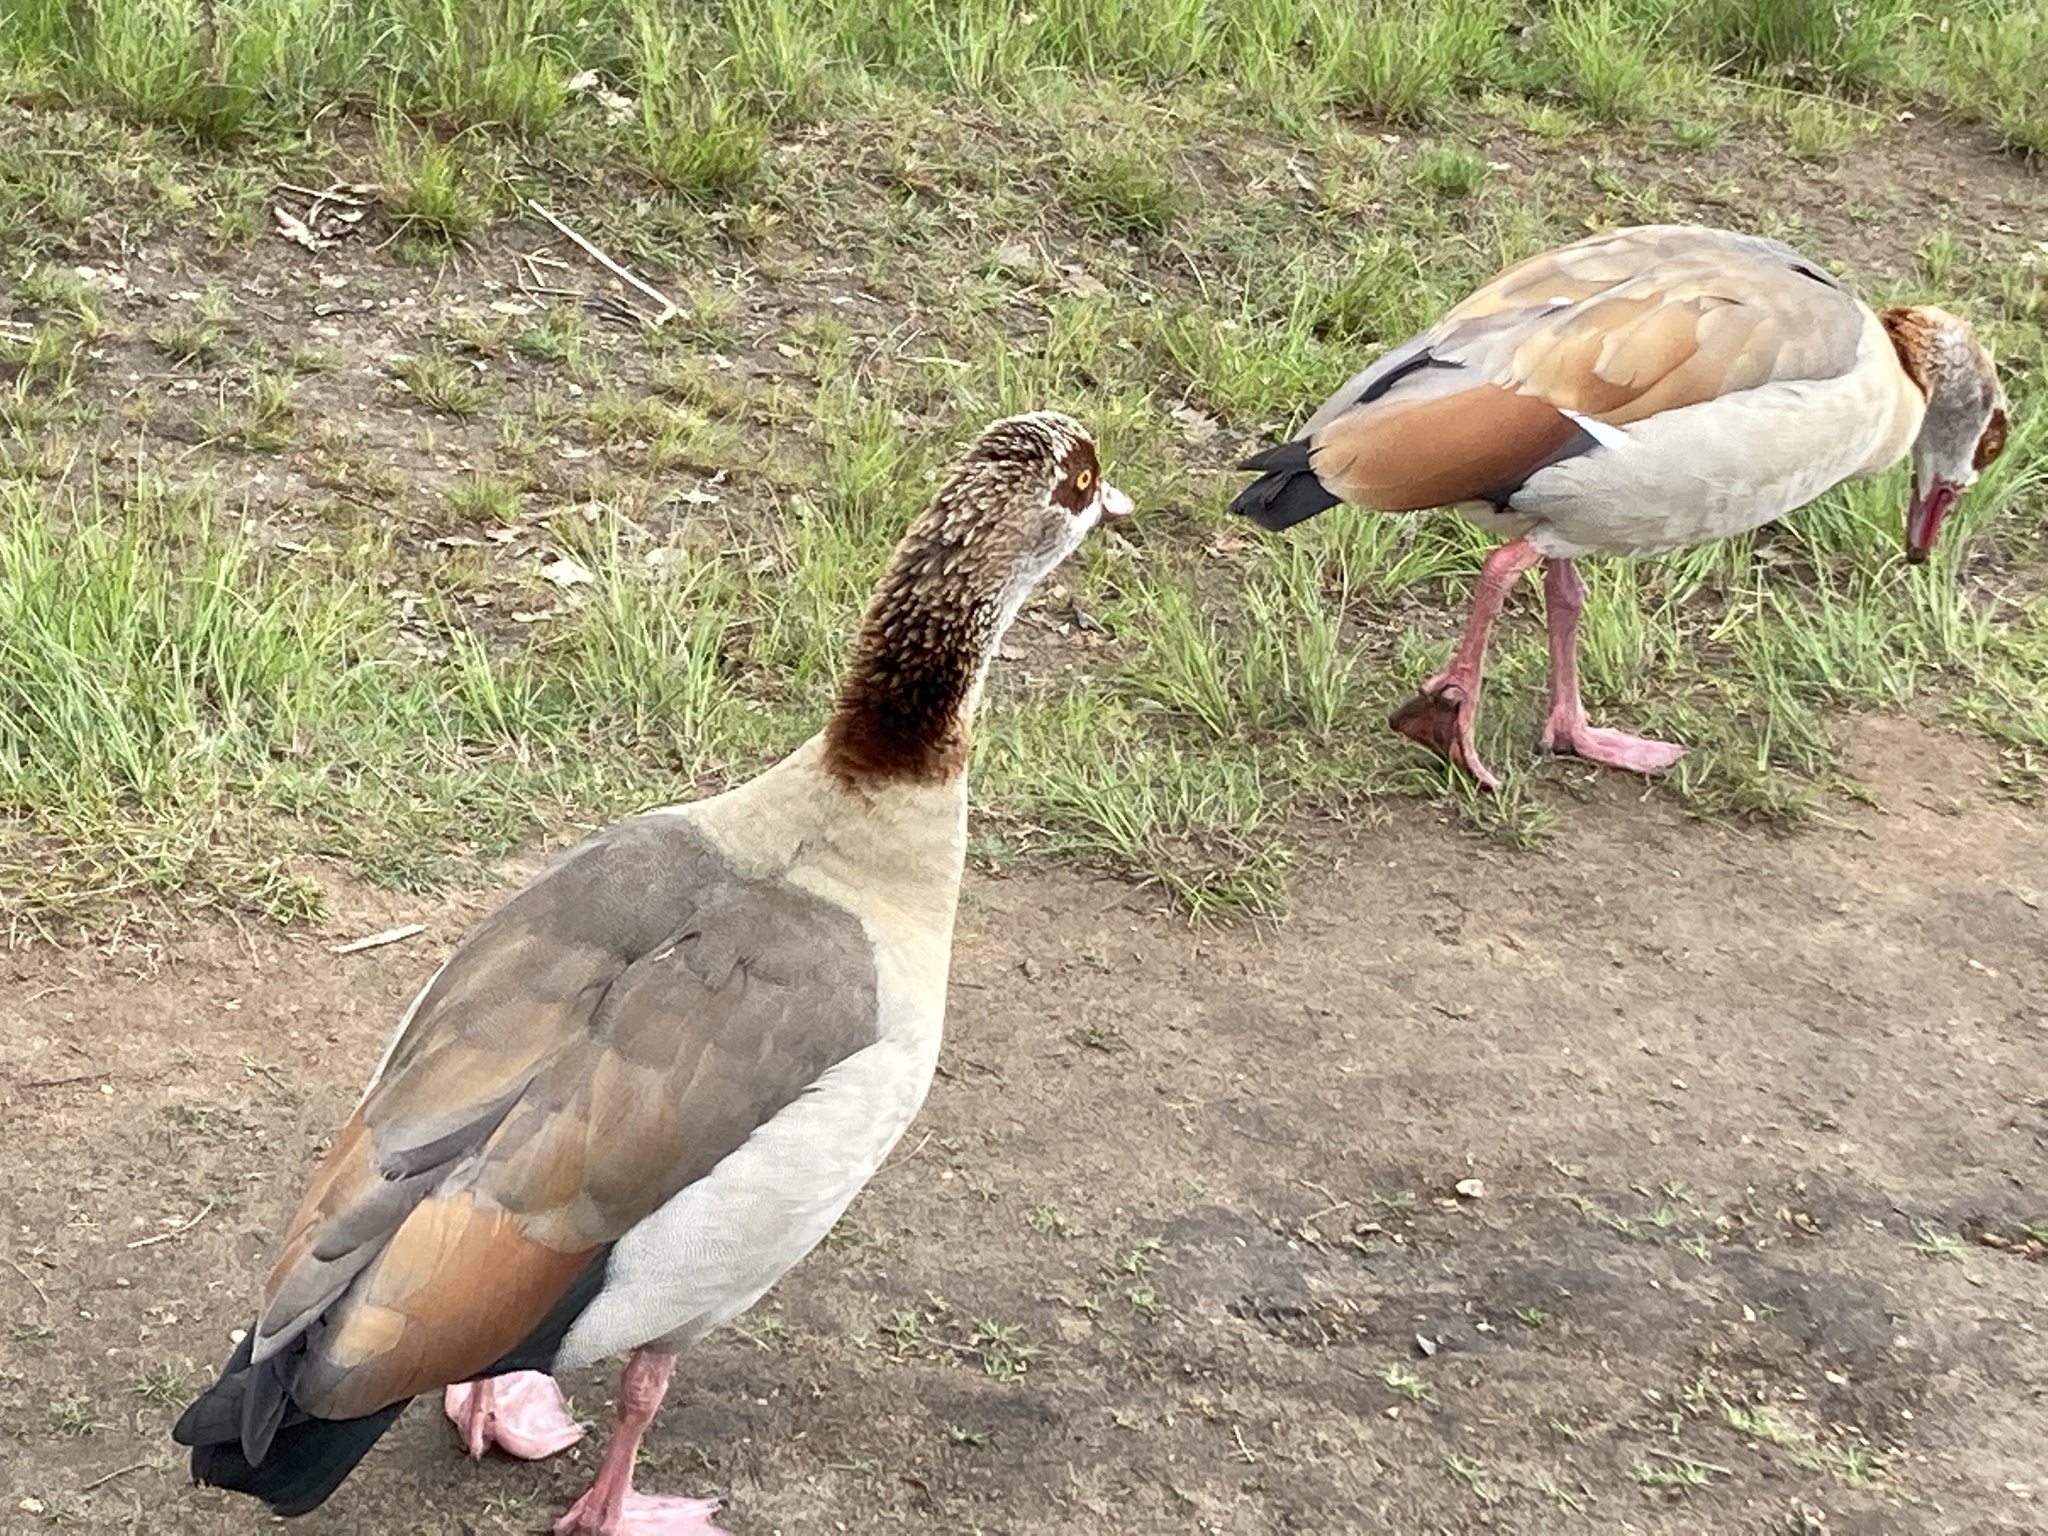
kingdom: Animalia
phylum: Chordata
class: Aves
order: Anseriformes
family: Anatidae
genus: Alopochen
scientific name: Alopochen aegyptiaca
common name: Egyptian goose
